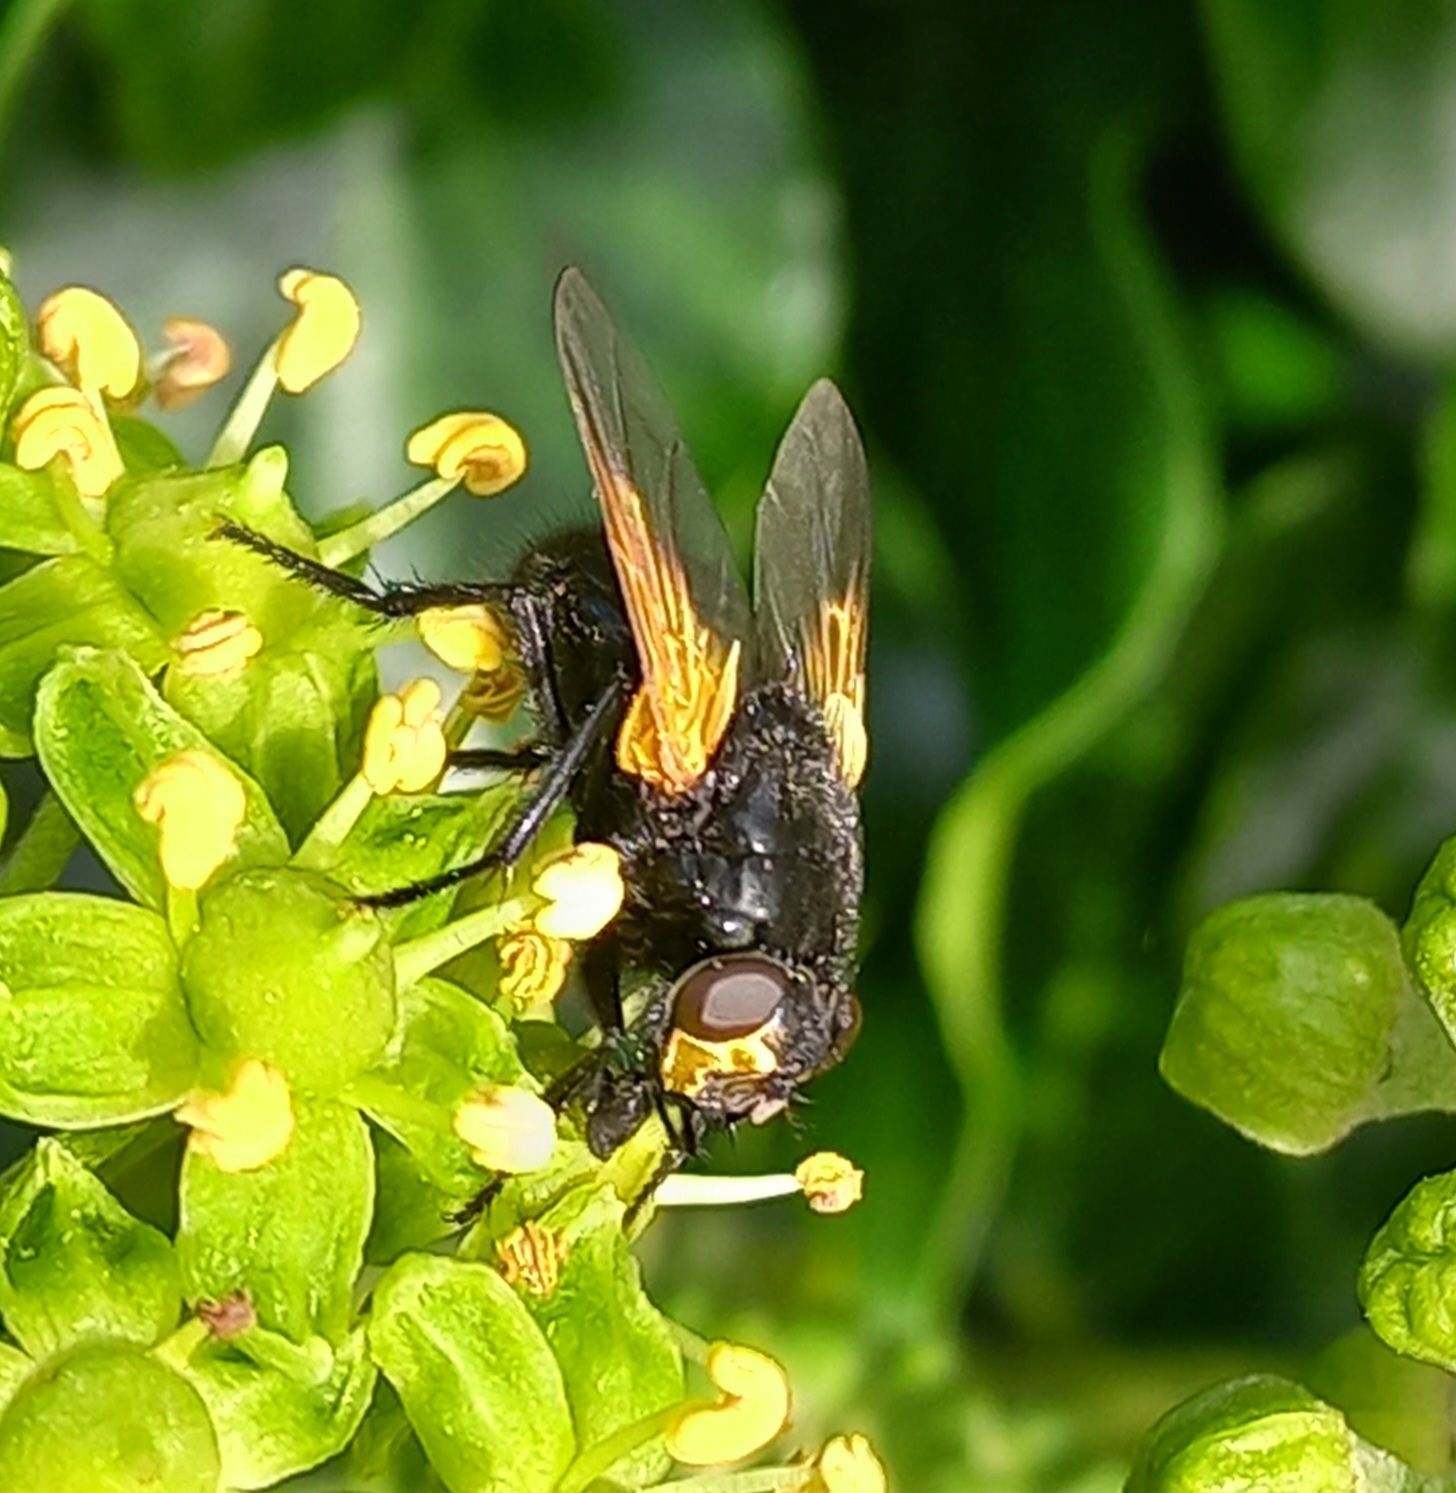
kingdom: Animalia
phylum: Arthropoda
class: Insecta
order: Diptera
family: Muscidae
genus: Mesembrina
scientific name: Mesembrina meridiana
